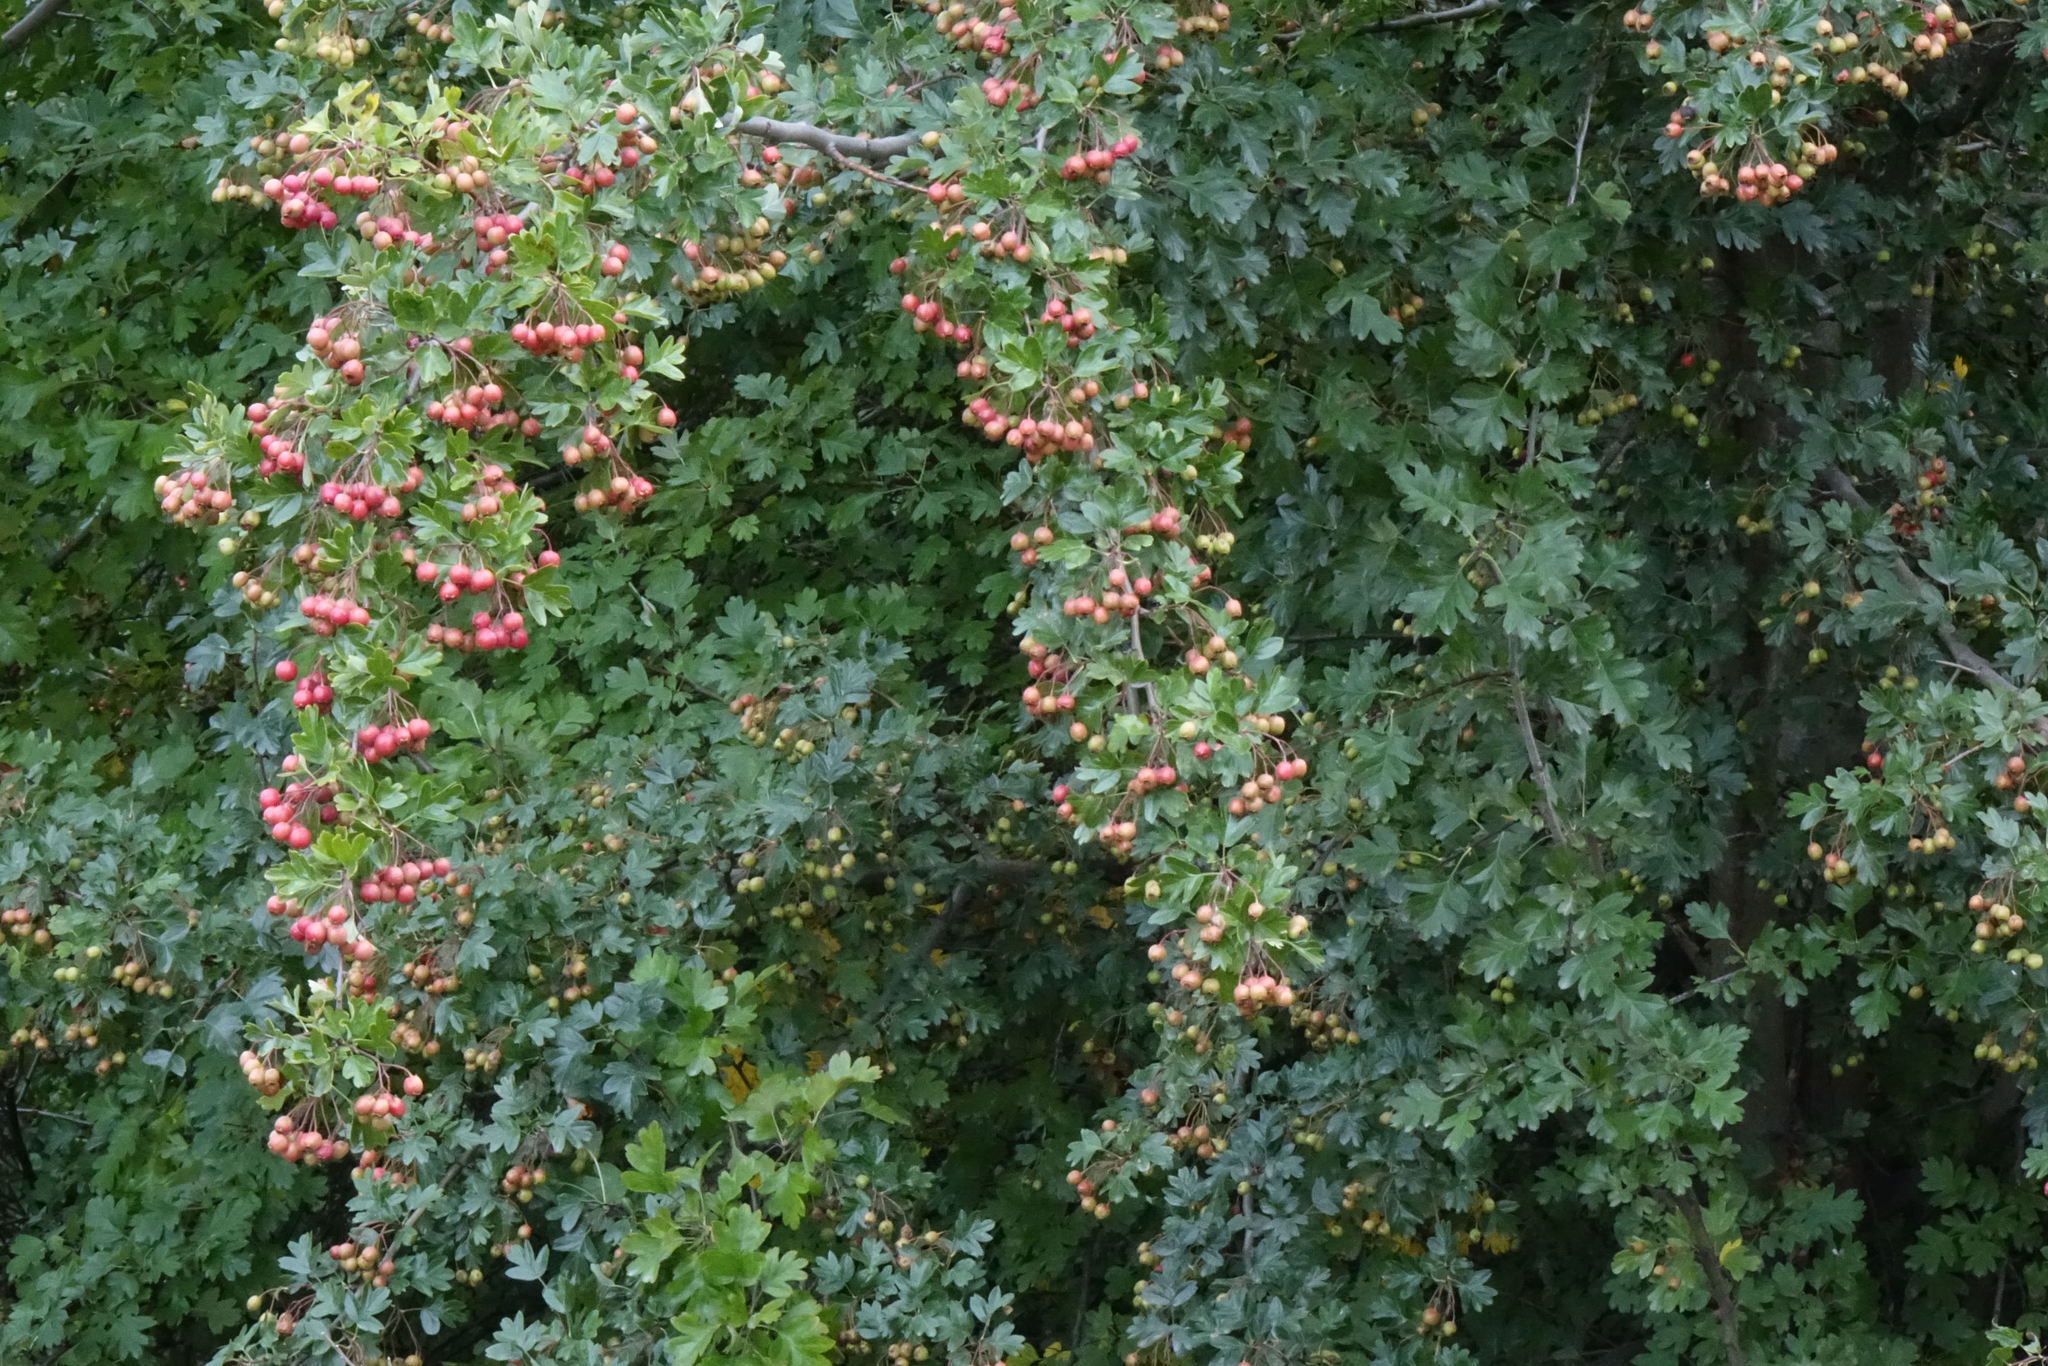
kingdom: Plantae
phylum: Tracheophyta
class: Magnoliopsida
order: Rosales
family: Rosaceae
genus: Crataegus
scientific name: Crataegus monogyna
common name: Hawthorn
